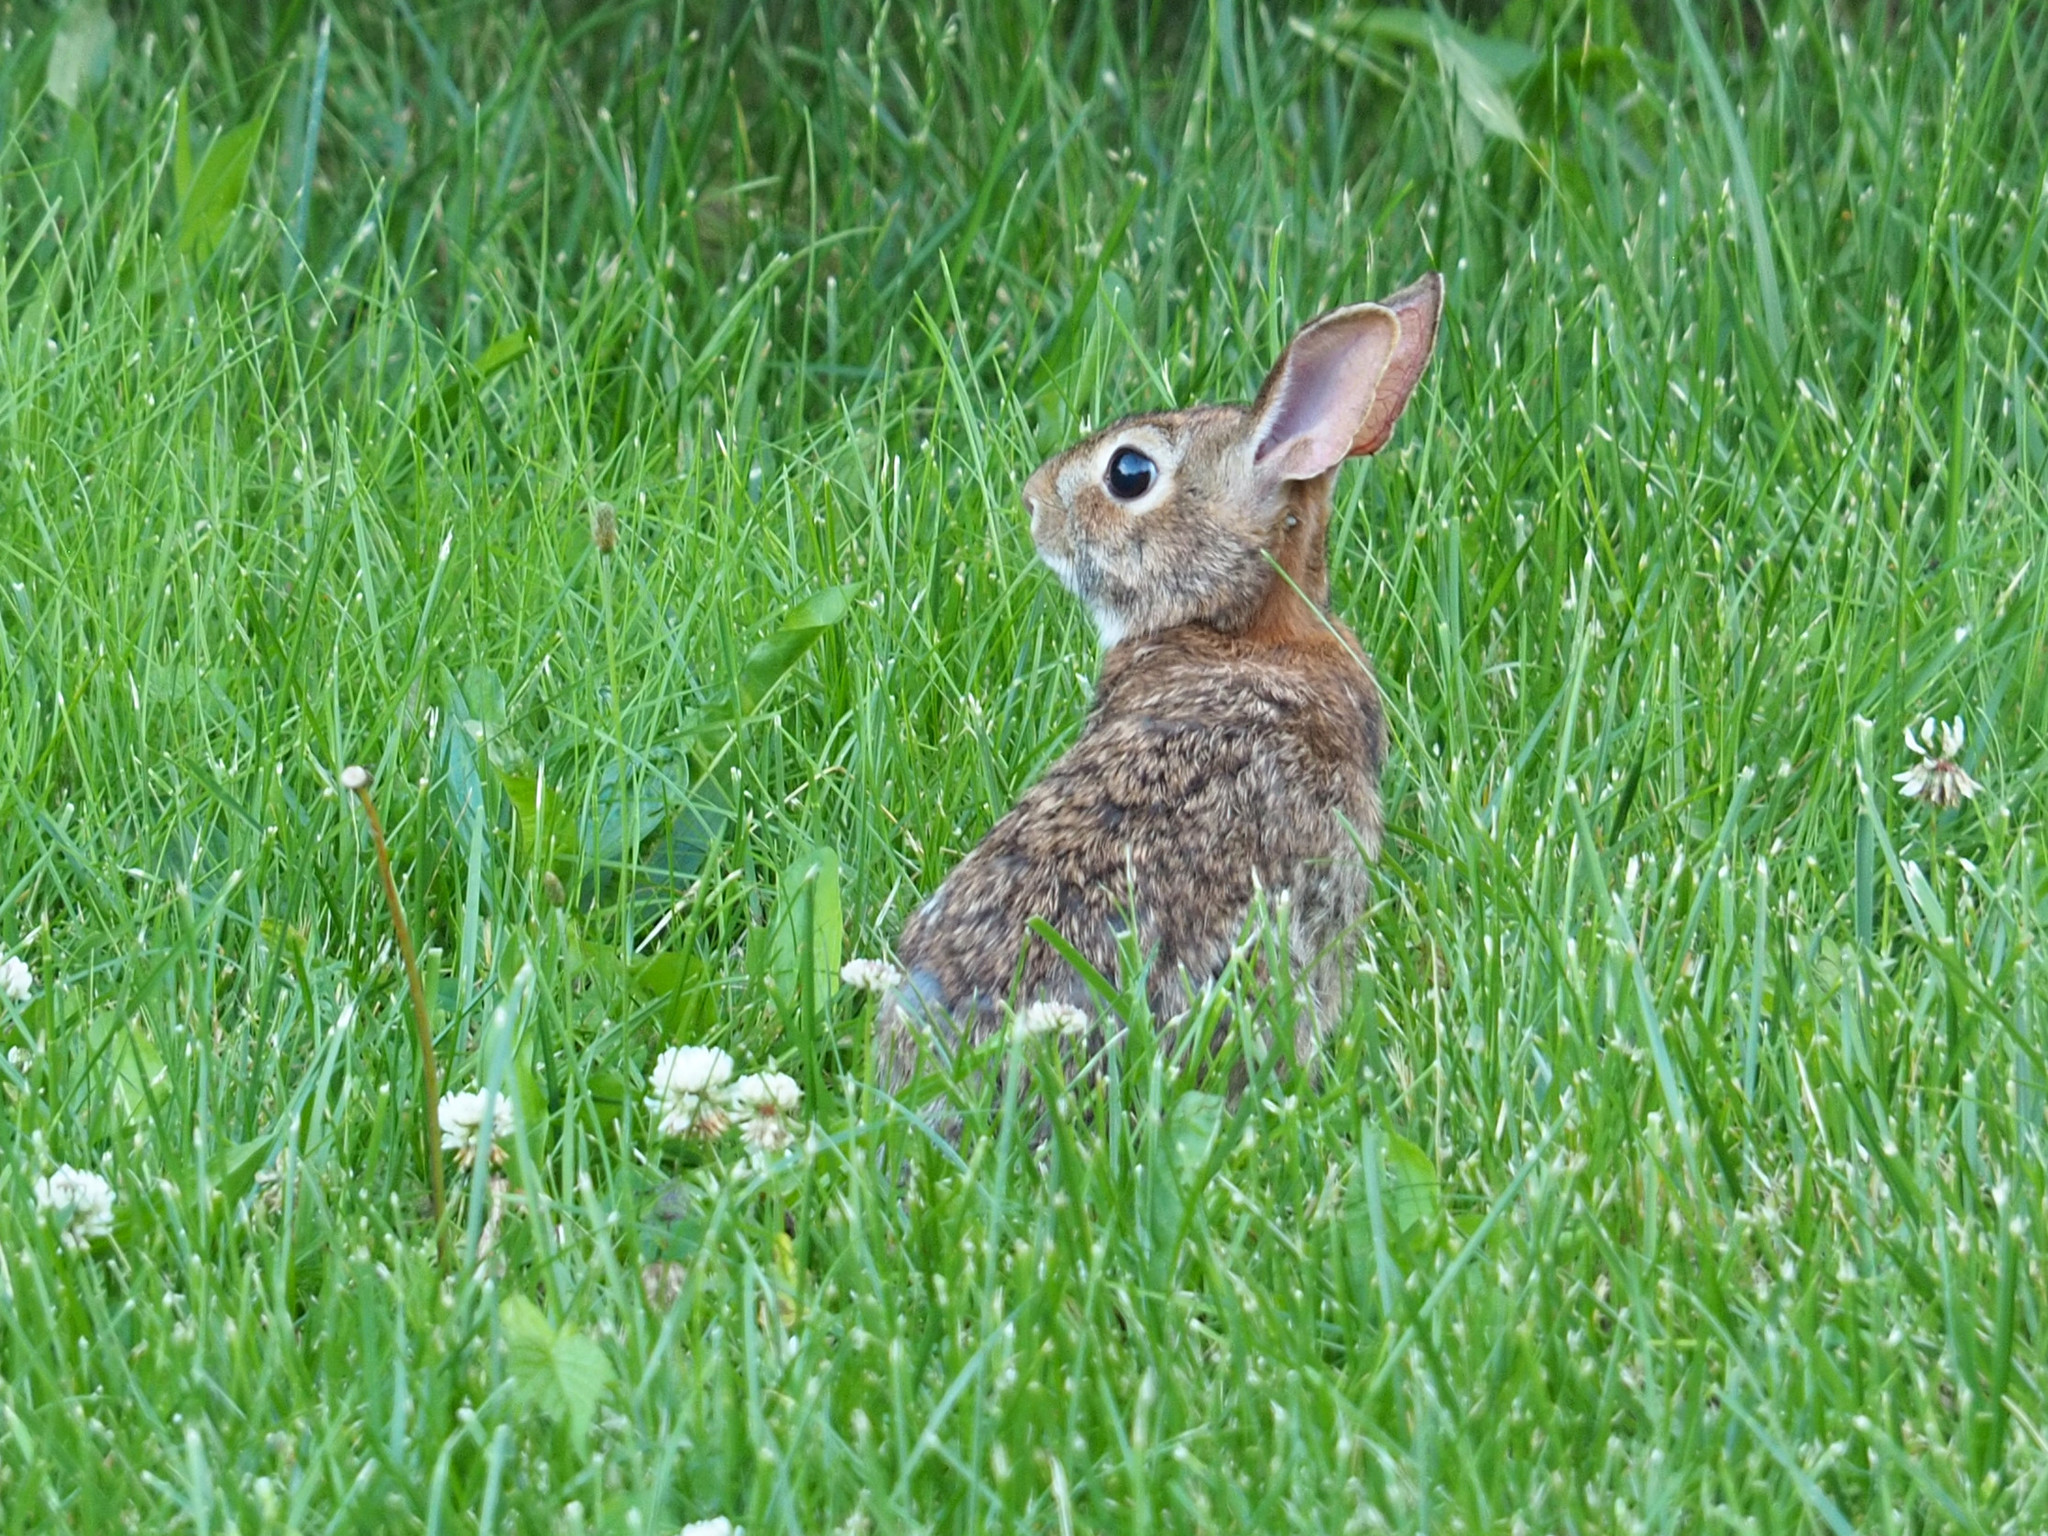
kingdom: Animalia
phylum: Chordata
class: Mammalia
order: Lagomorpha
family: Leporidae
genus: Sylvilagus
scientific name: Sylvilagus floridanus
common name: Eastern cottontail
